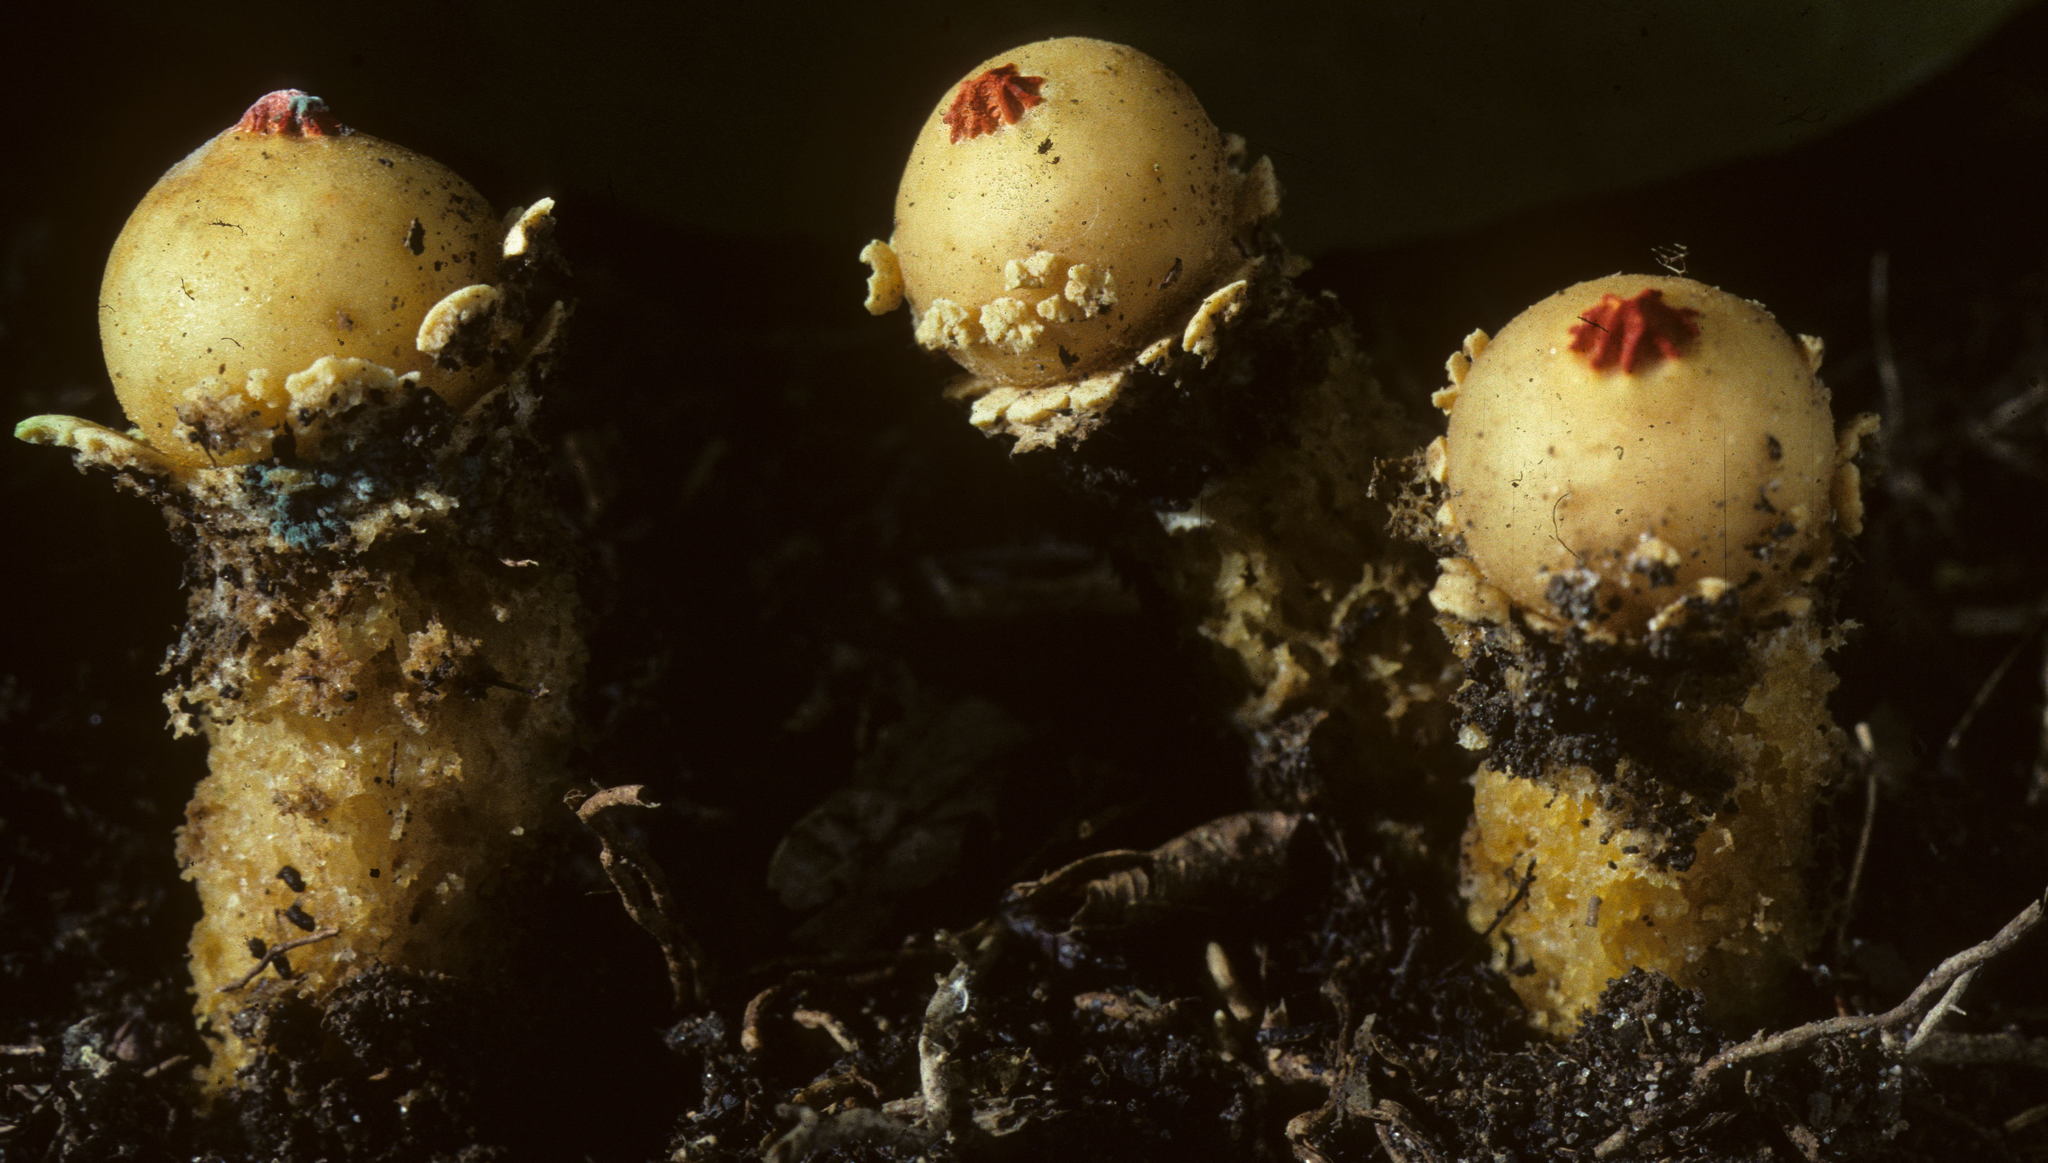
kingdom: Fungi
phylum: Basidiomycota
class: Agaricomycetes
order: Boletales
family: Calostomataceae
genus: Calostoma
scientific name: Calostoma lutescens
